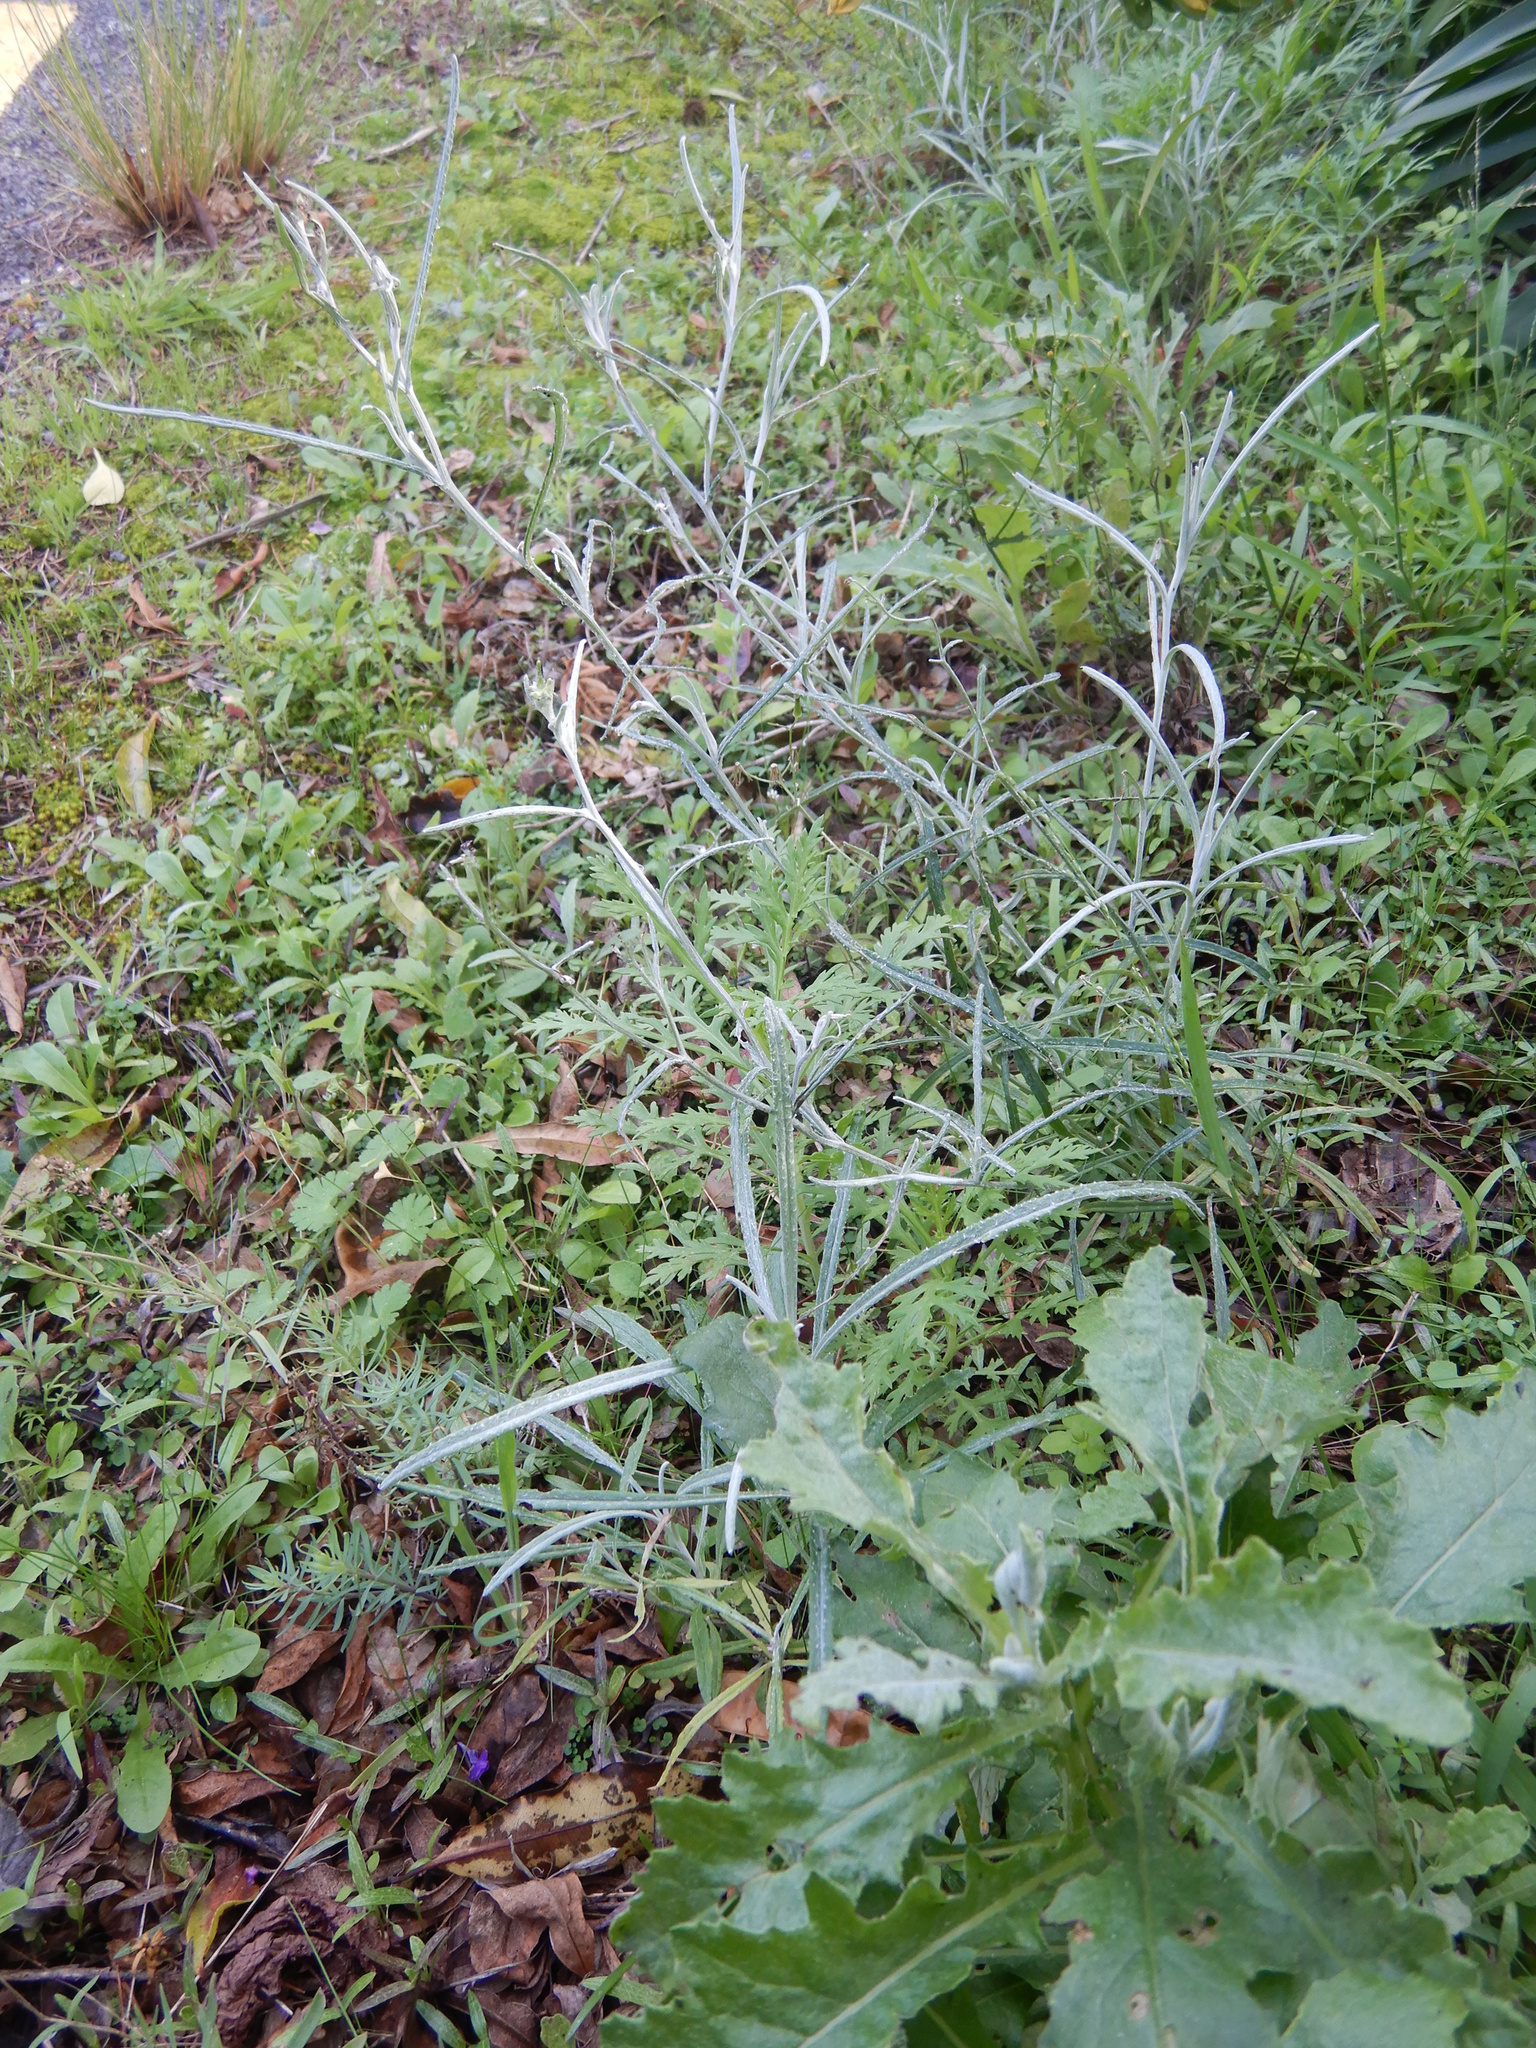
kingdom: Plantae
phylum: Tracheophyta
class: Magnoliopsida
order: Asterales
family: Asteraceae
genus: Senecio
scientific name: Senecio quadridentatus
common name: Cotton fireweed
